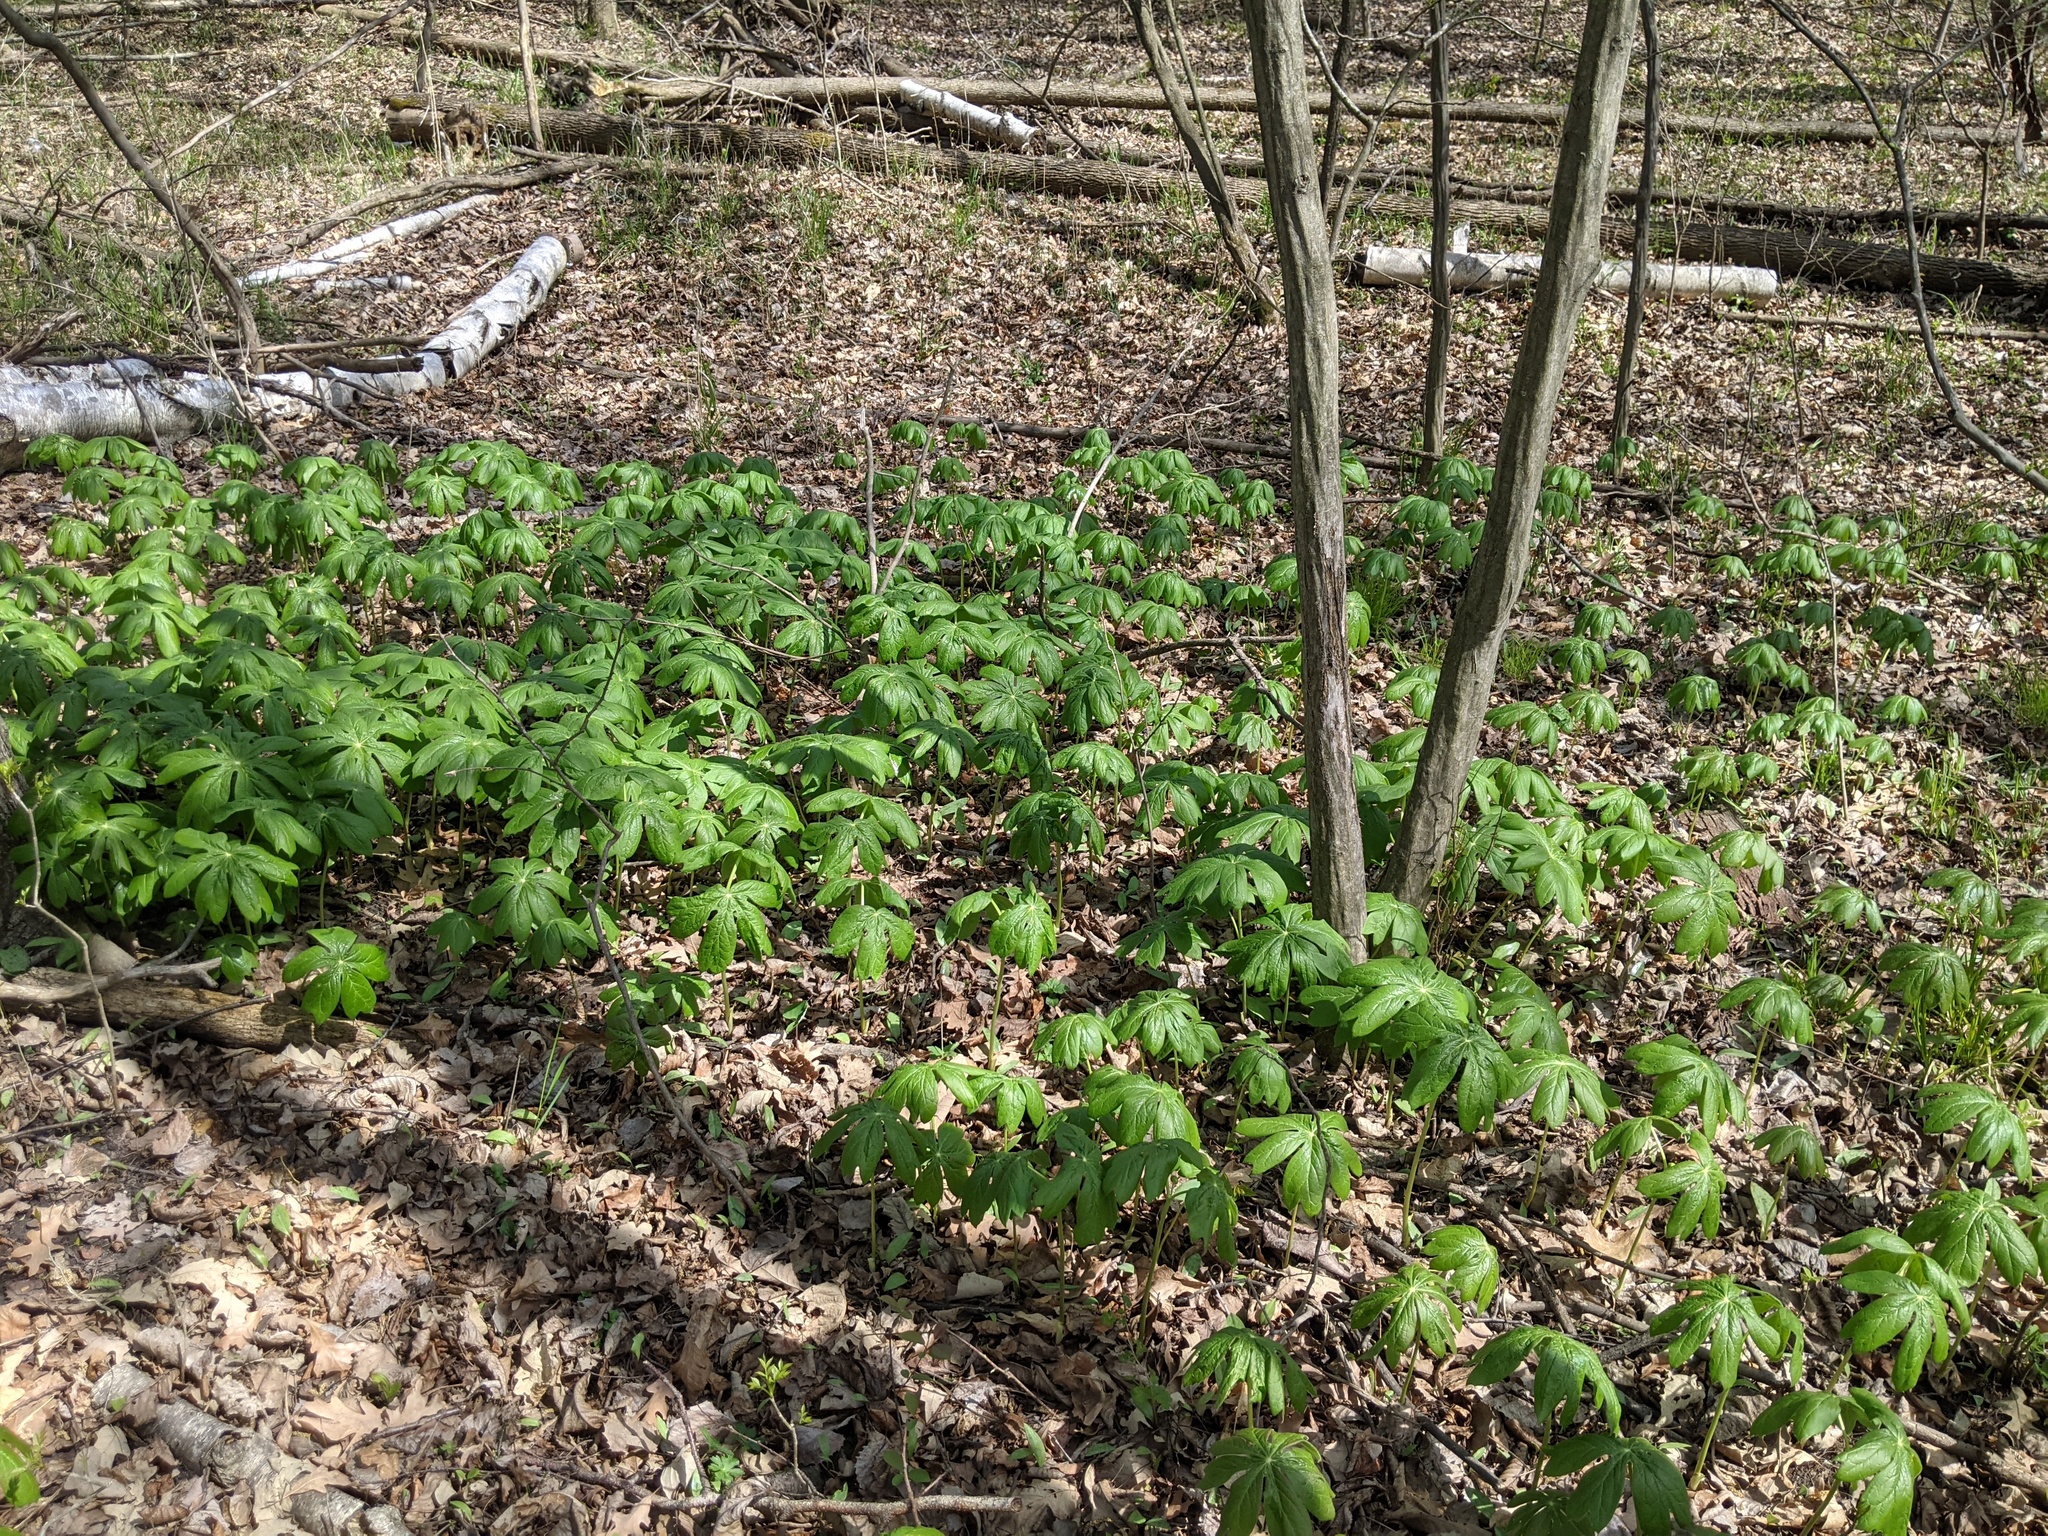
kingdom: Plantae
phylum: Tracheophyta
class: Magnoliopsida
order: Ranunculales
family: Berberidaceae
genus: Podophyllum
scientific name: Podophyllum peltatum
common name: Wild mandrake
